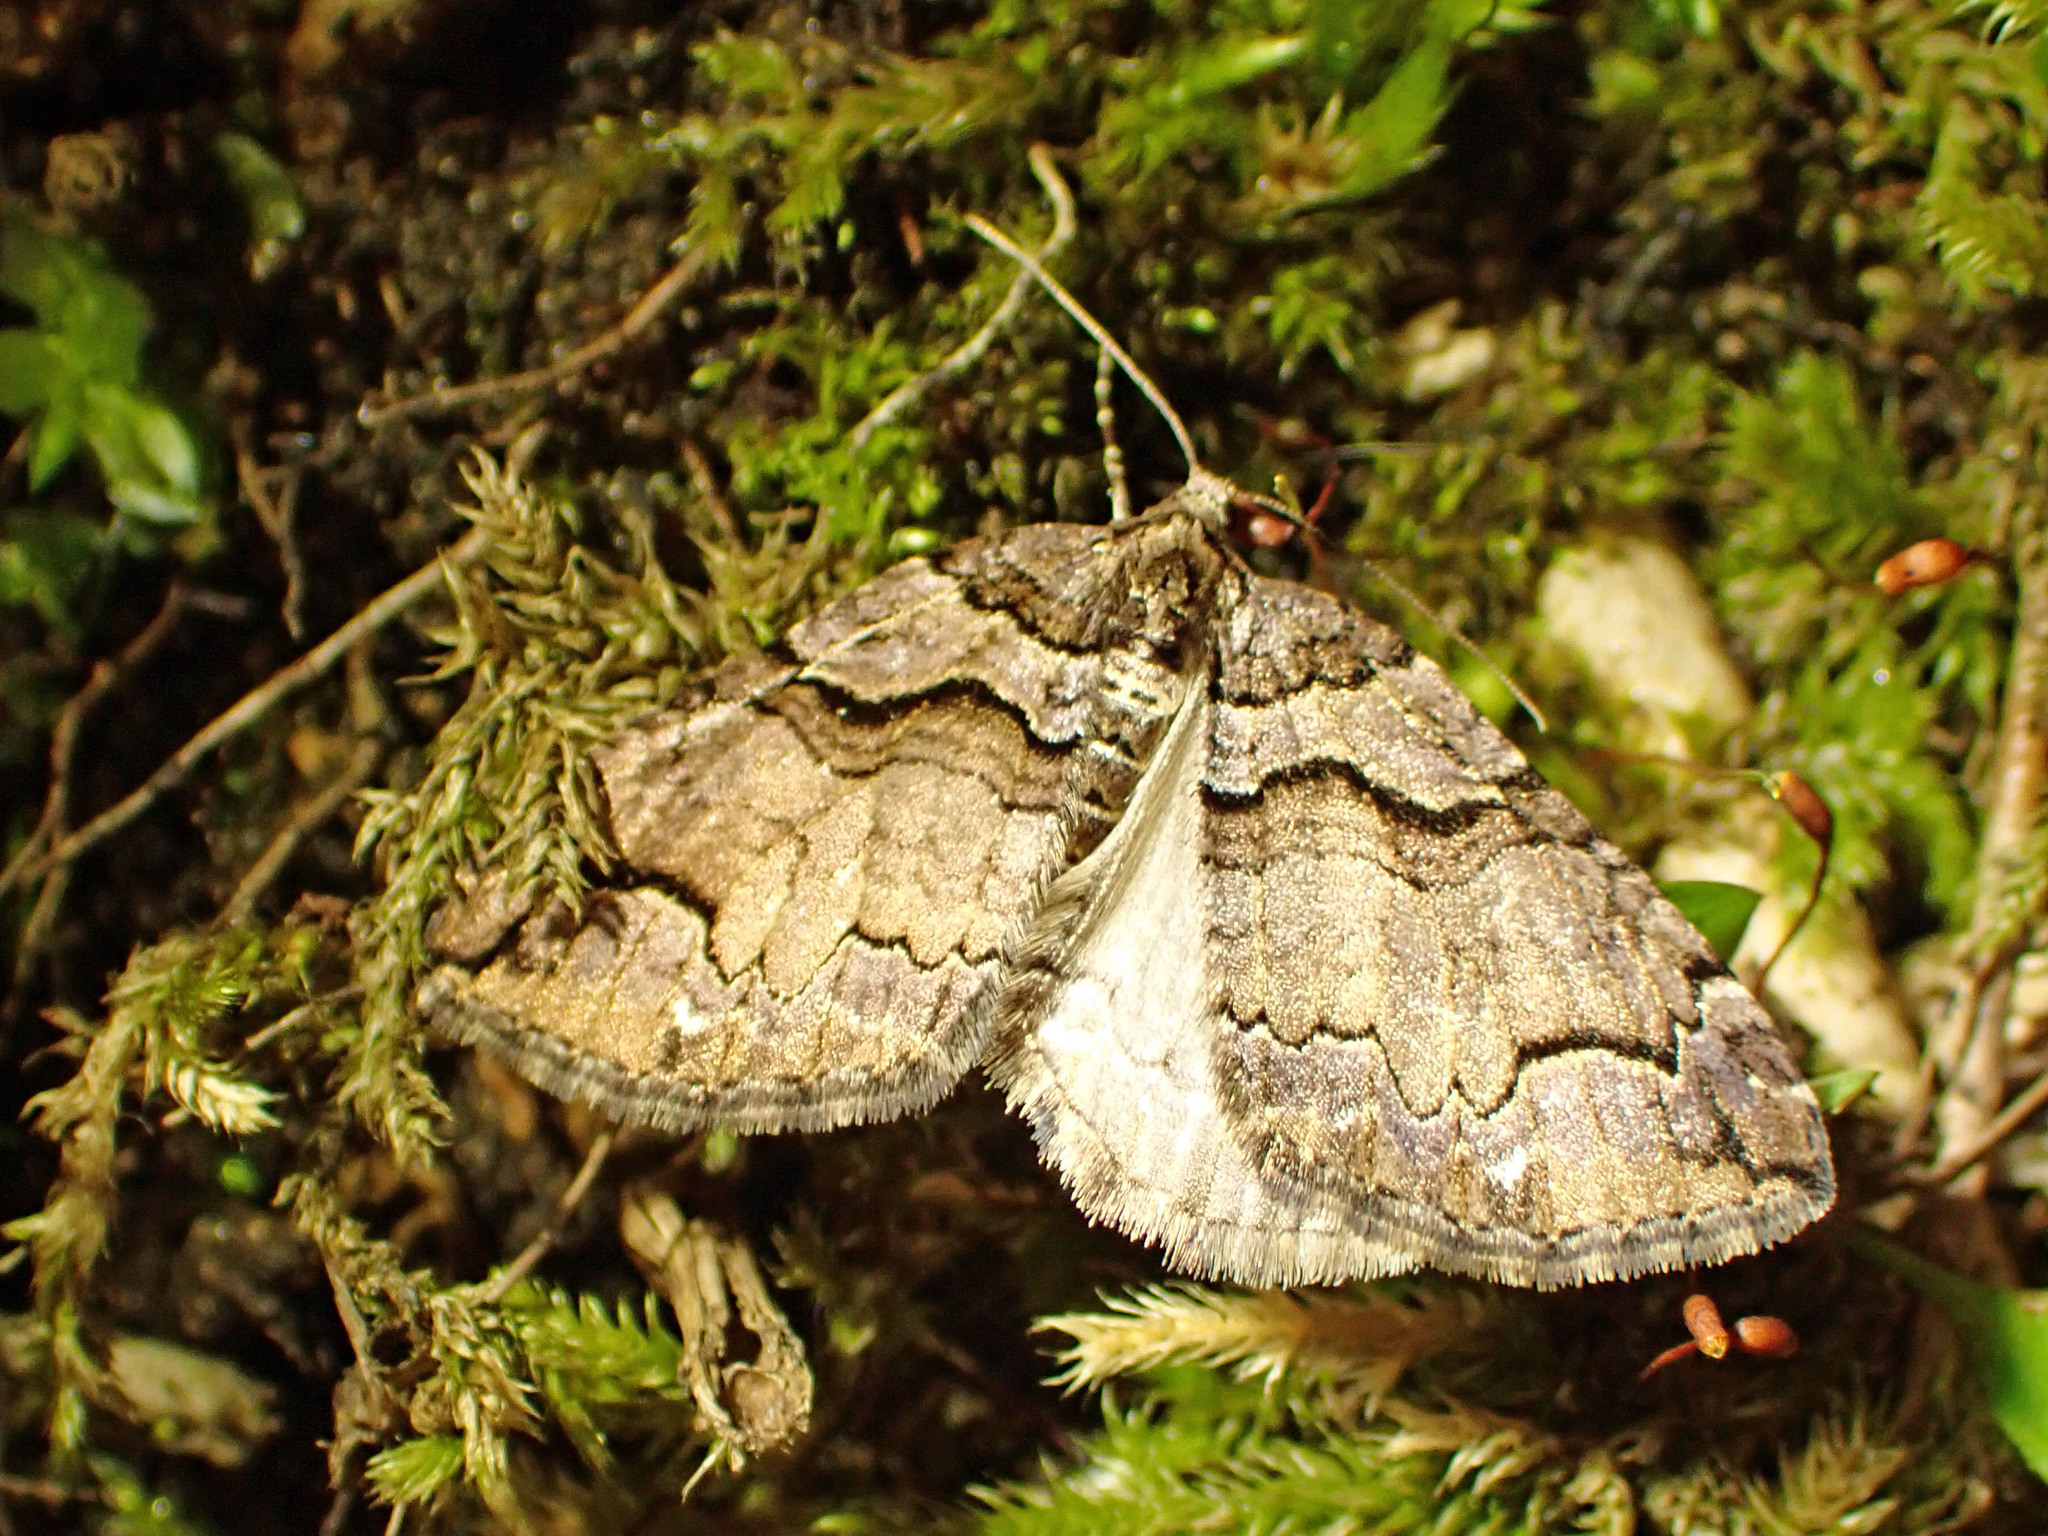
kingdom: Animalia
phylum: Arthropoda
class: Insecta
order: Lepidoptera
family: Geometridae
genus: Anticlea
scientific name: Anticlea vasiliata
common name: Variable carpet
